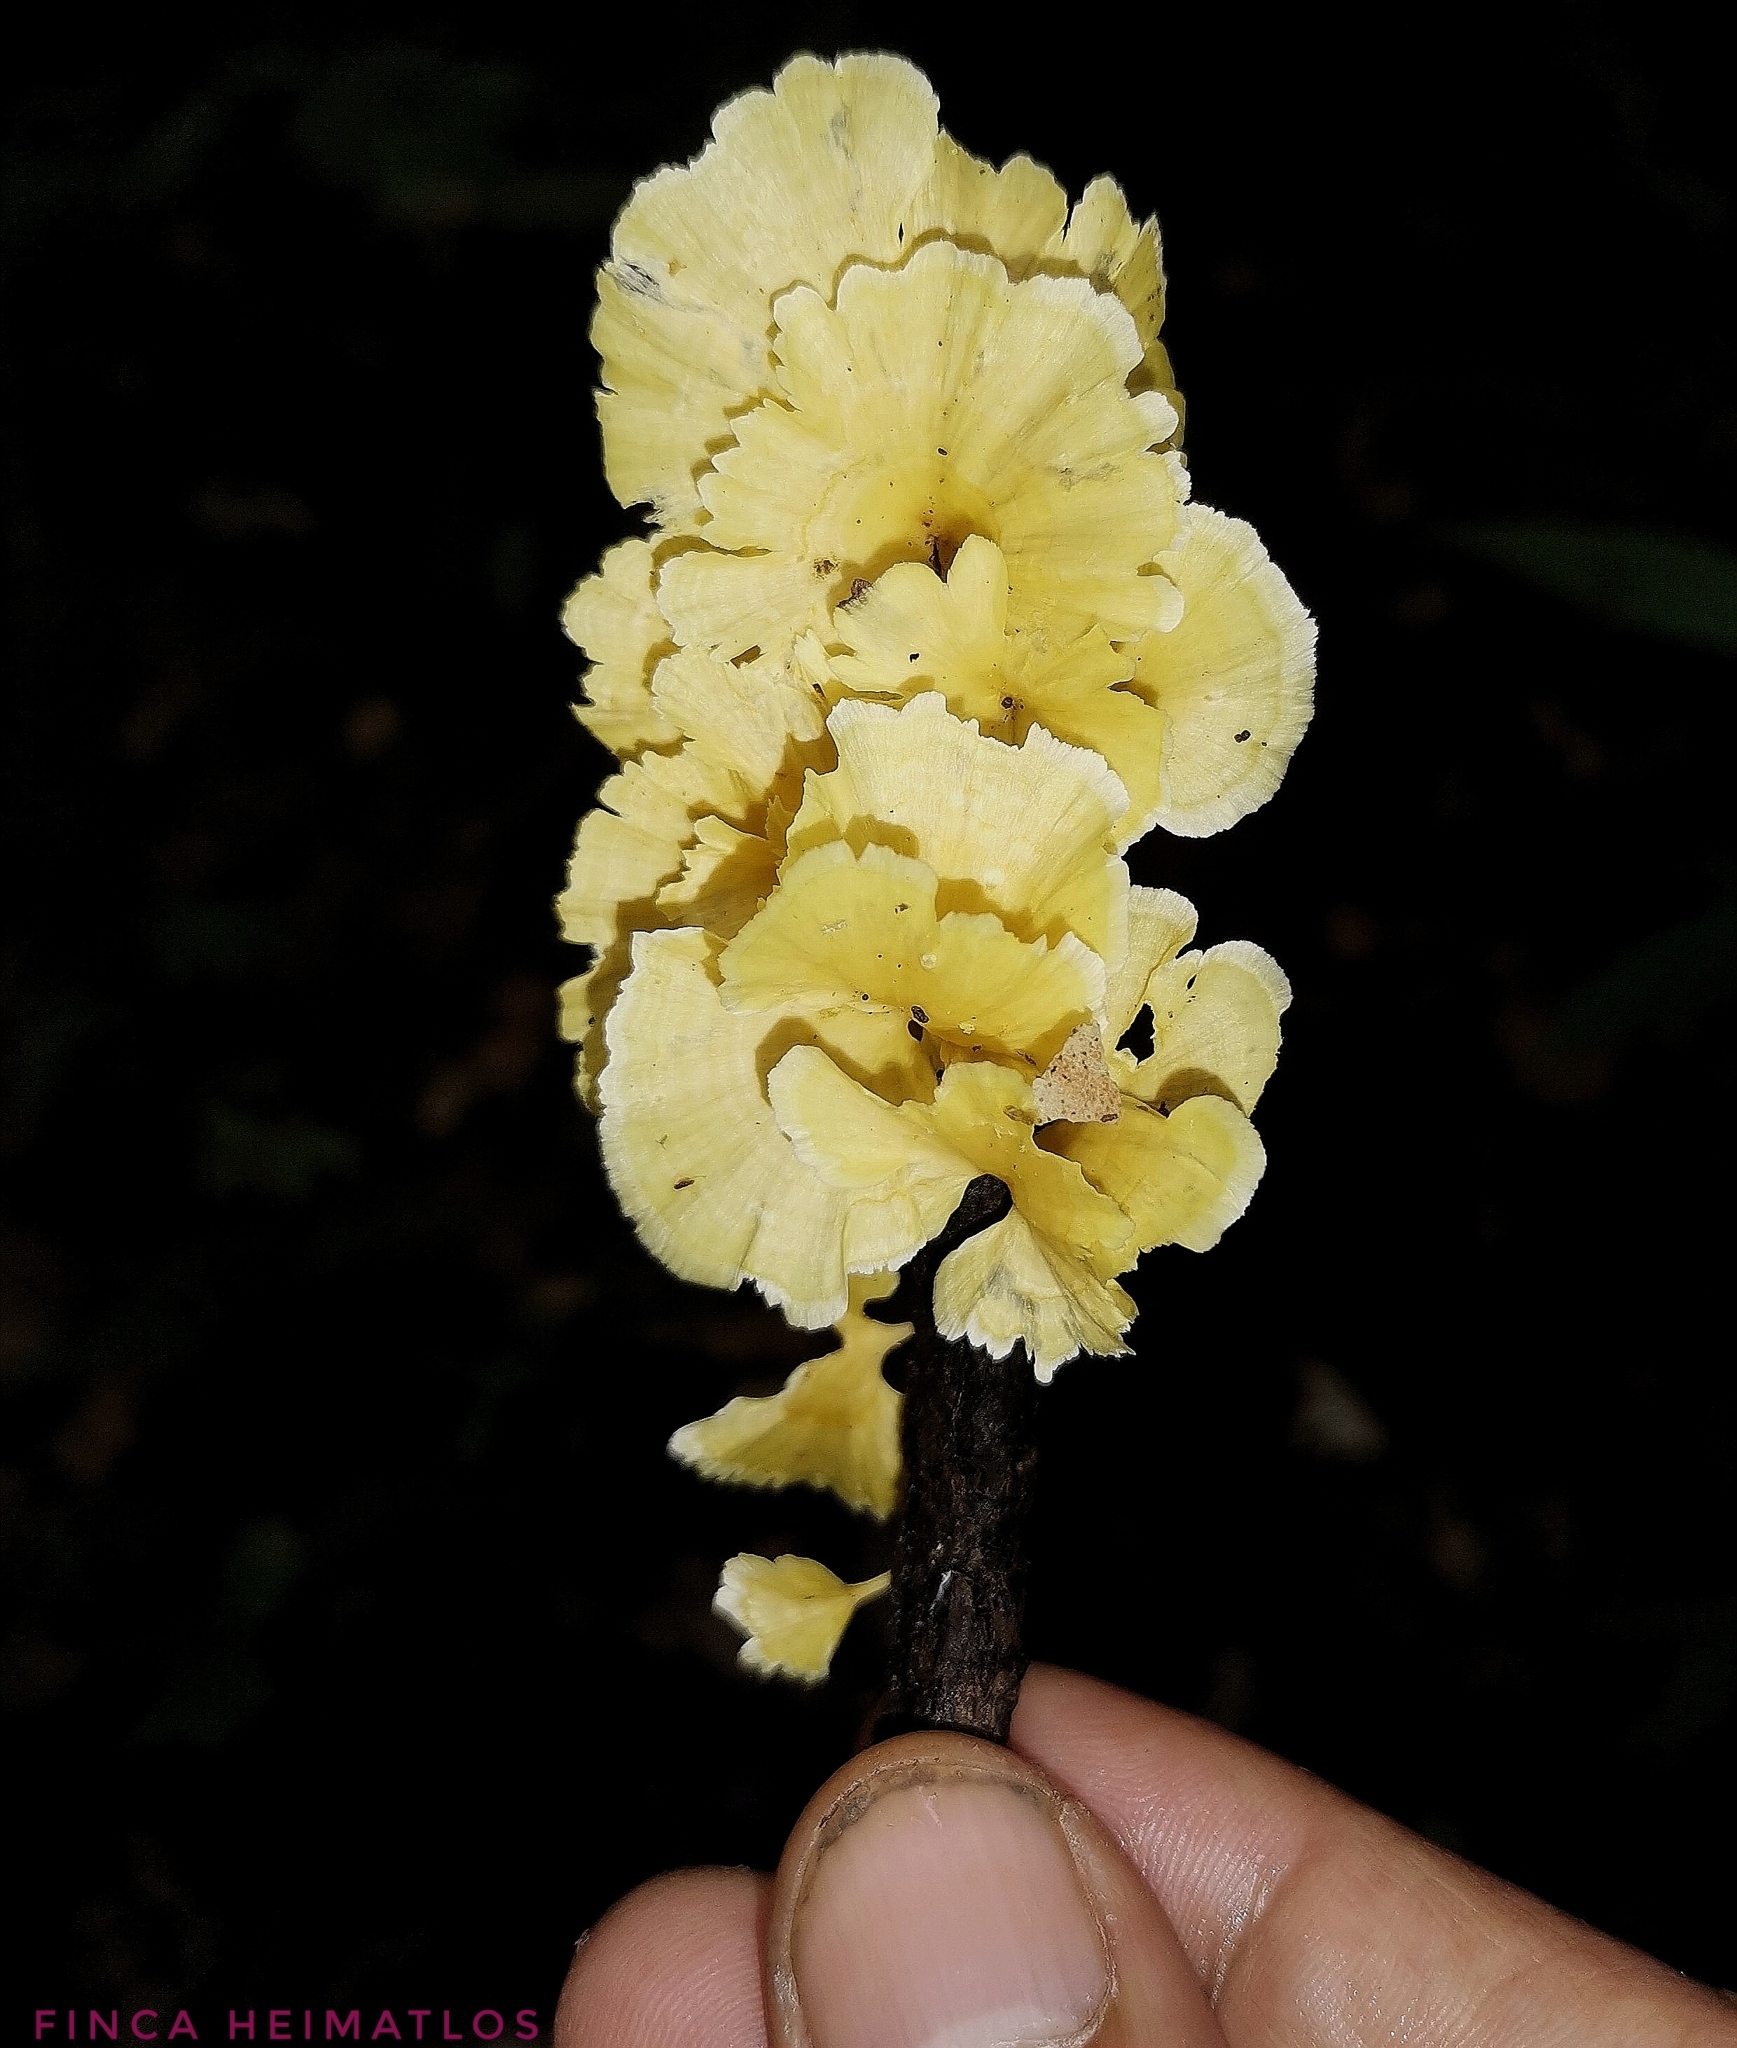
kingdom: Fungi
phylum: Basidiomycota
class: Agaricomycetes
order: Hymenochaetales
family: Rickenellaceae
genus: Cotylidia
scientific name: Cotylidia aurantiaca
